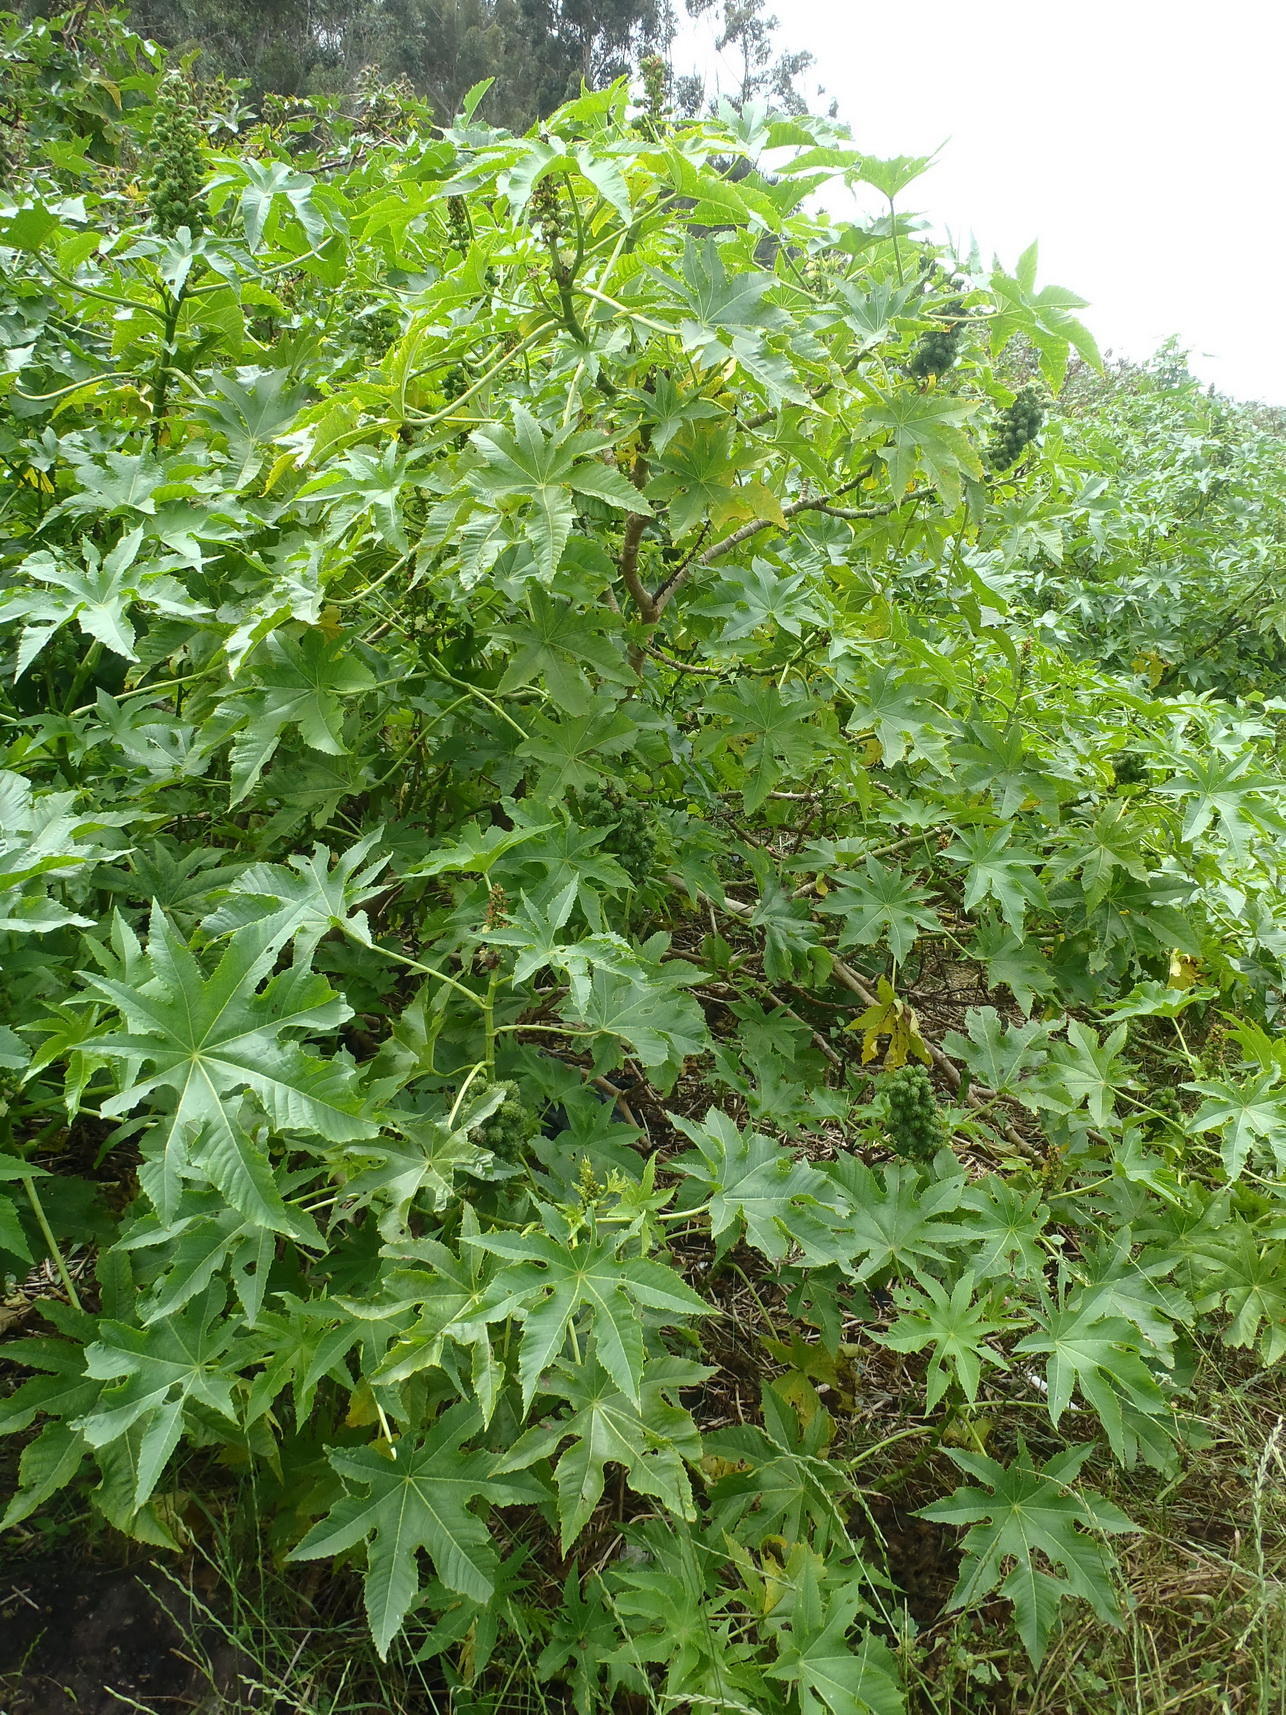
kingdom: Plantae
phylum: Tracheophyta
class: Magnoliopsida
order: Malpighiales
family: Euphorbiaceae
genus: Ricinus
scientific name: Ricinus communis
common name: Castor-oil-plant
